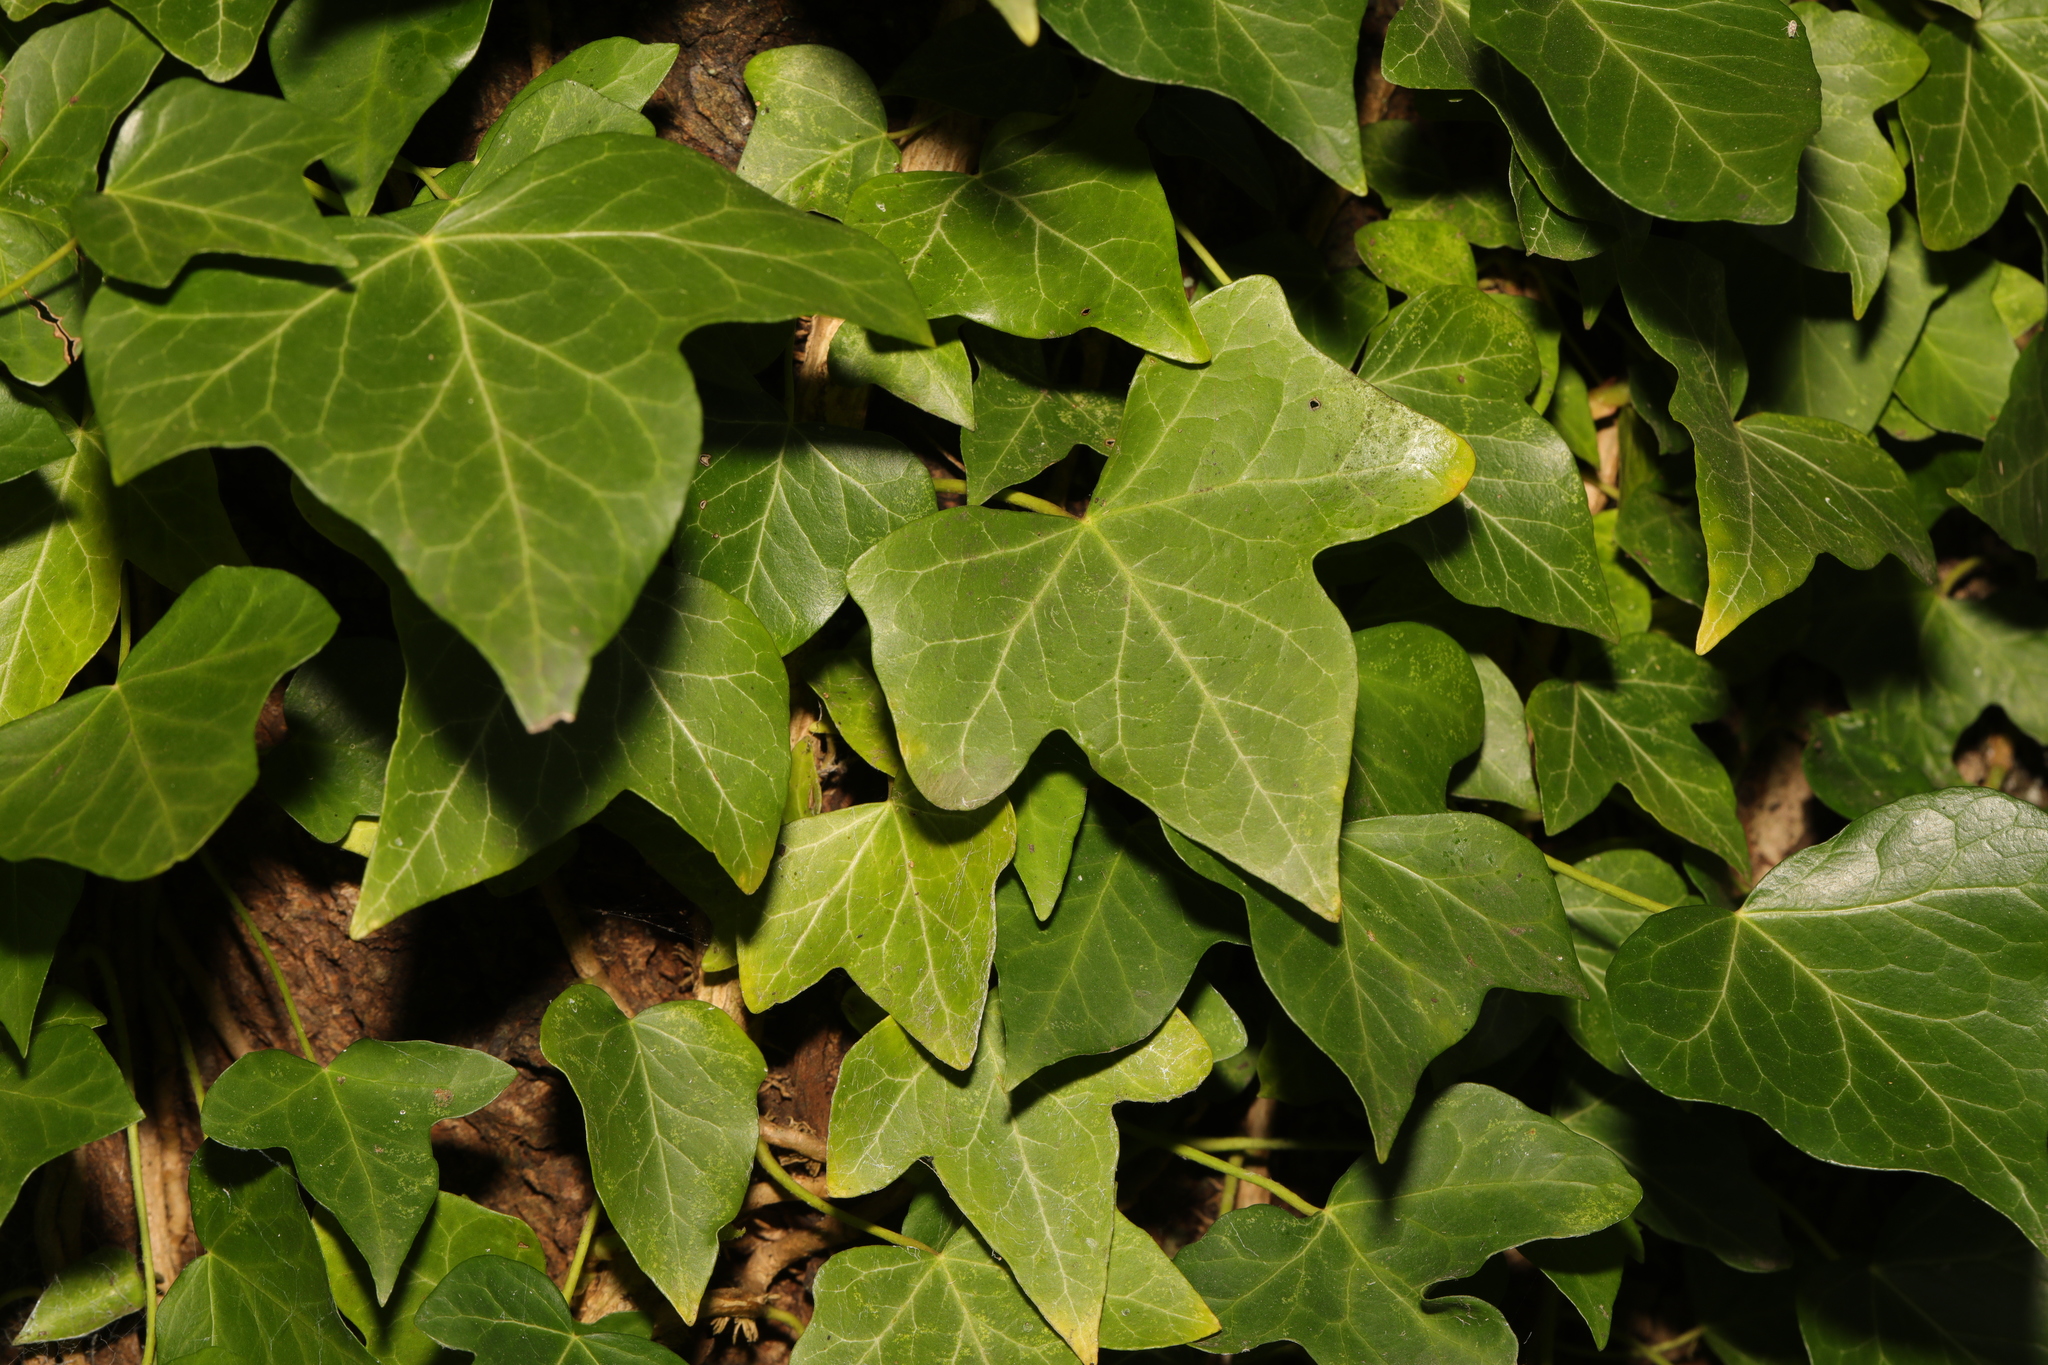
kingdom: Plantae
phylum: Tracheophyta
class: Magnoliopsida
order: Apiales
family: Araliaceae
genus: Hedera
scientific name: Hedera helix
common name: Ivy
